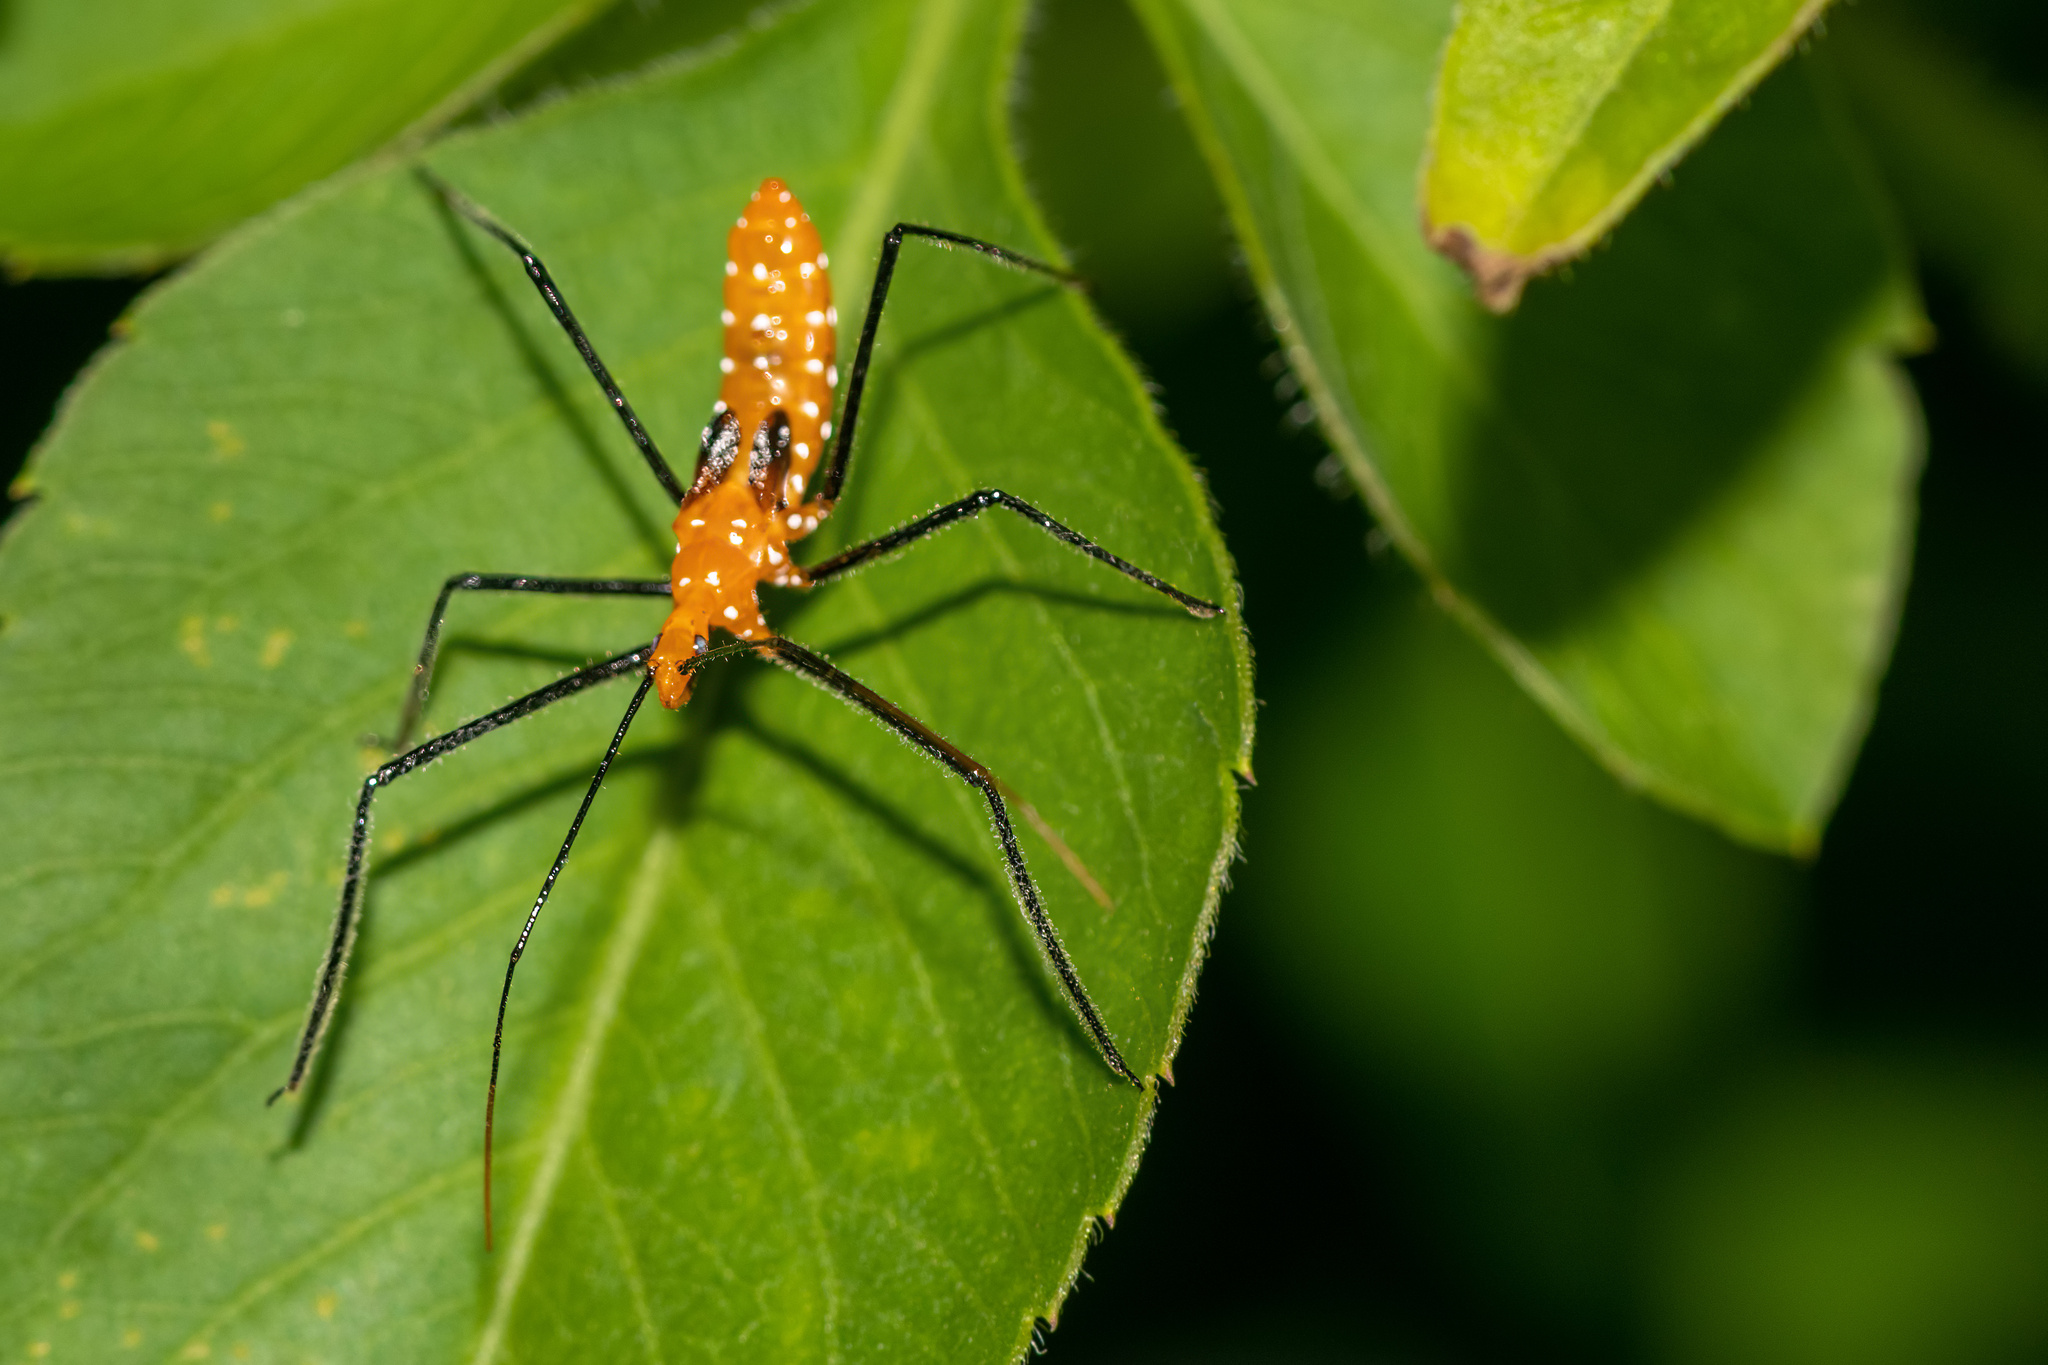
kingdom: Animalia
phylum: Arthropoda
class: Insecta
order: Hemiptera
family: Reduviidae
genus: Zelus
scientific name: Zelus longipes
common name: Milkweed assassin bug
